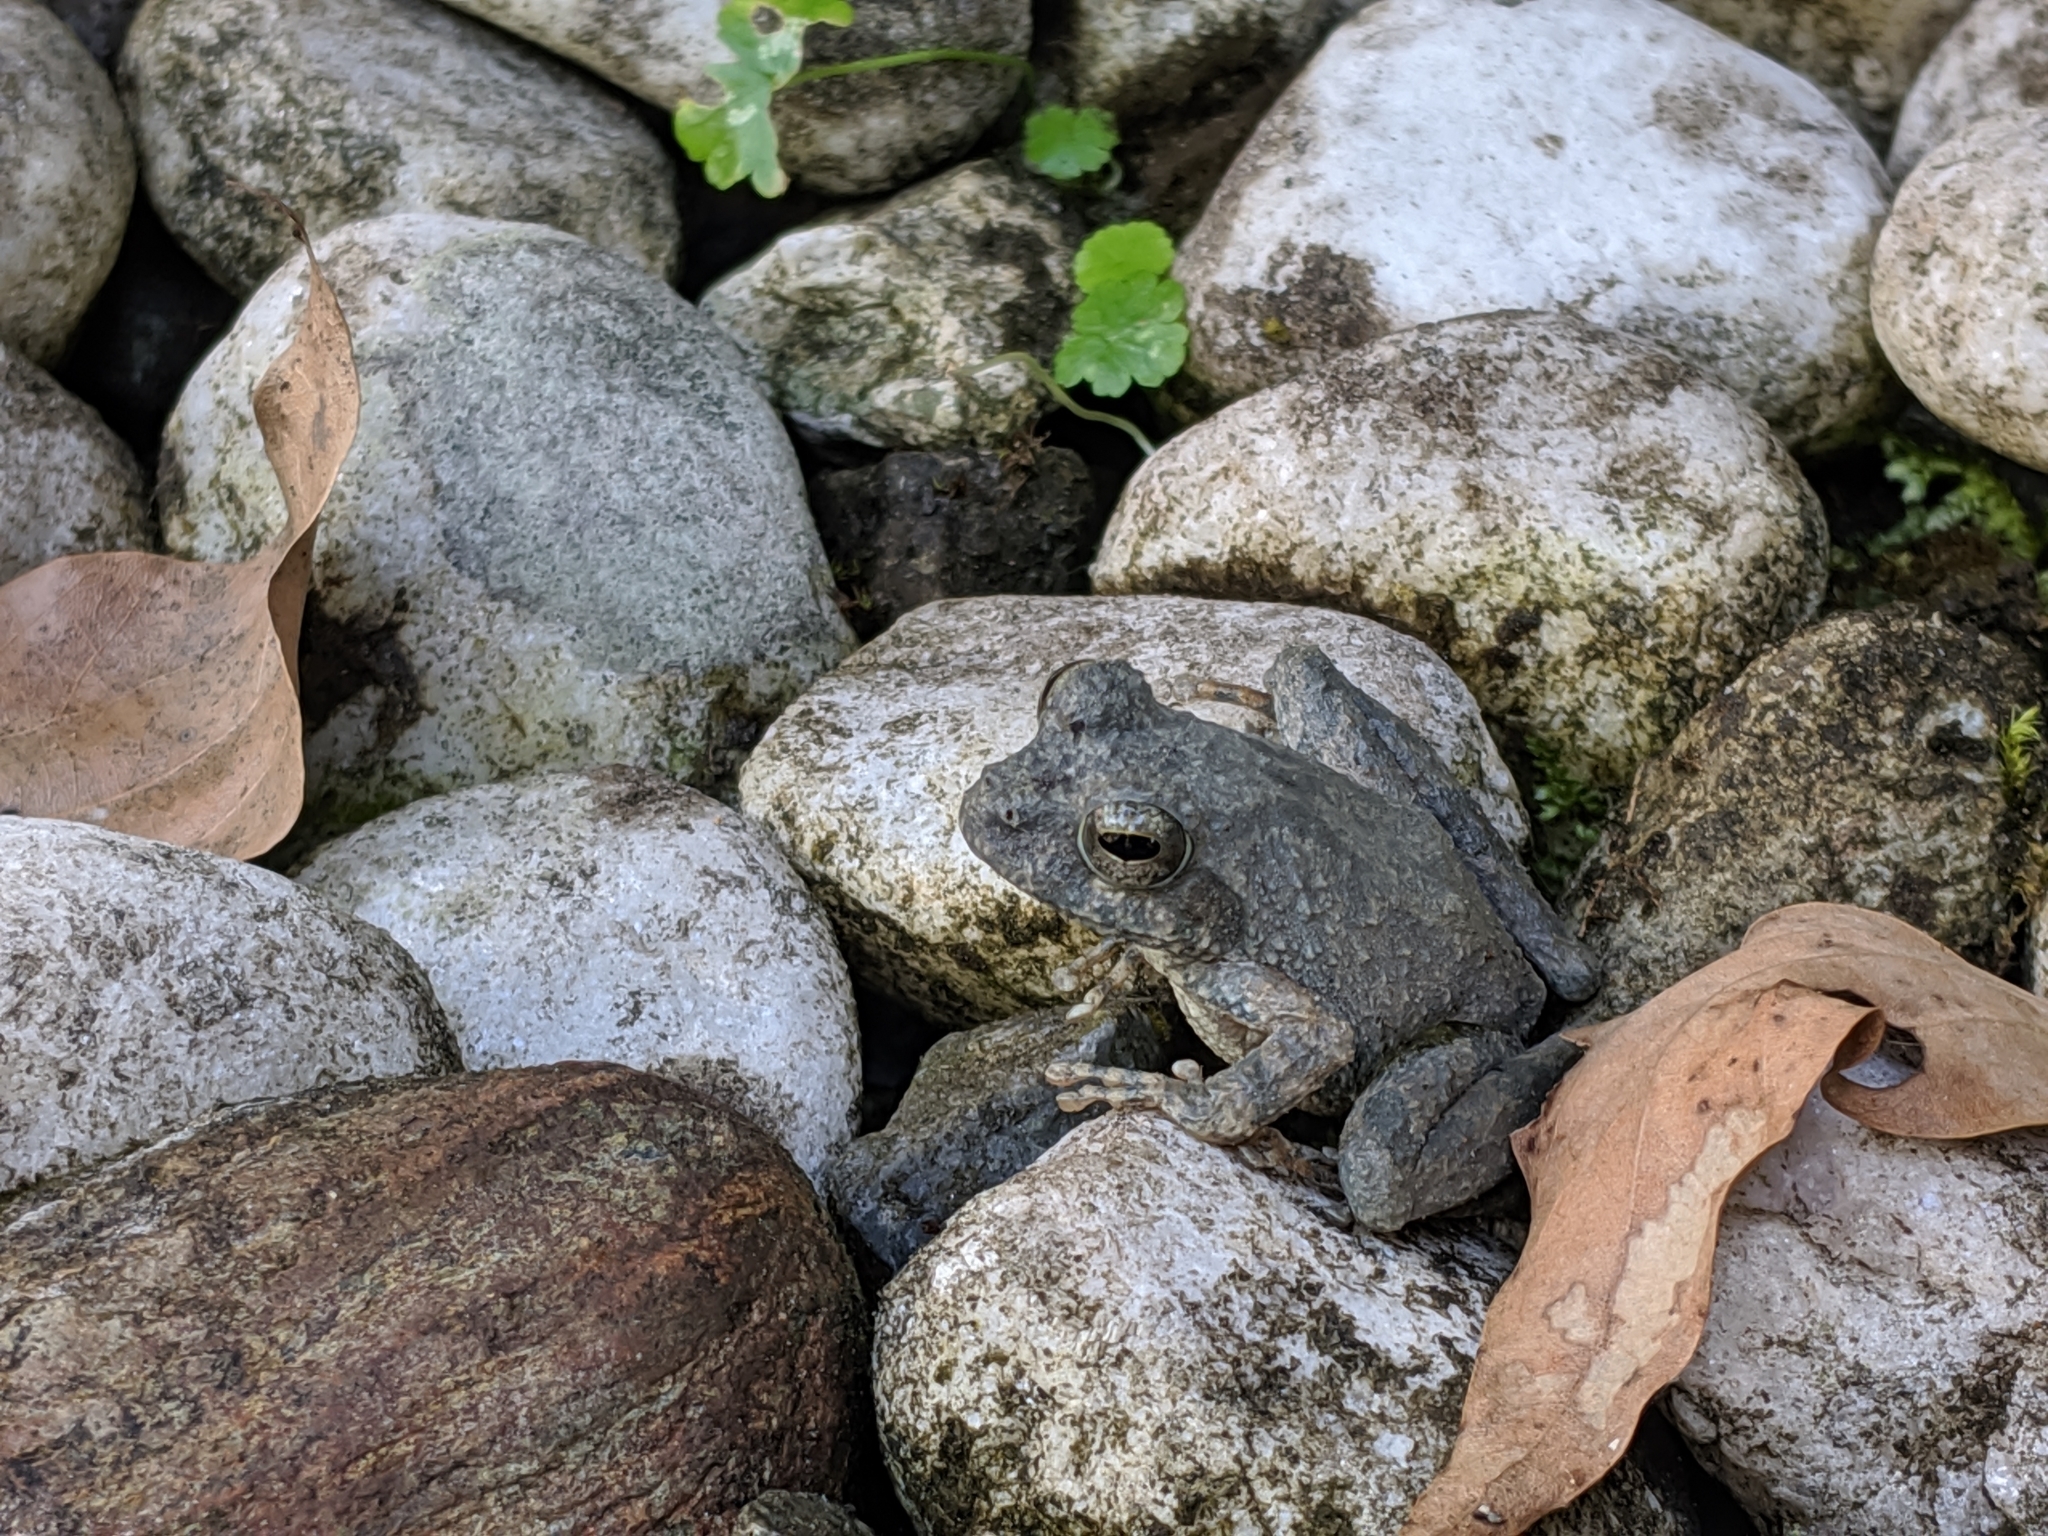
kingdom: Animalia
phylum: Chordata
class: Amphibia
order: Anura
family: Rhacophoridae
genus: Buergeria
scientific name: Buergeria otai
